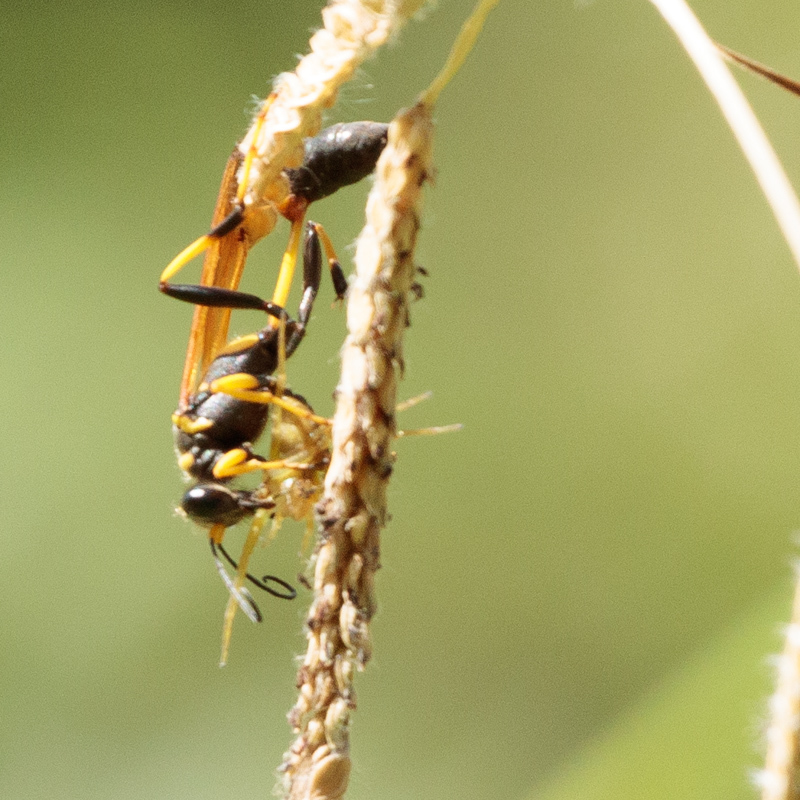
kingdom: Animalia
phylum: Arthropoda
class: Insecta
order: Hymenoptera
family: Sphecidae
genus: Sceliphron
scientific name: Sceliphron caementarium
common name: Mud dauber
